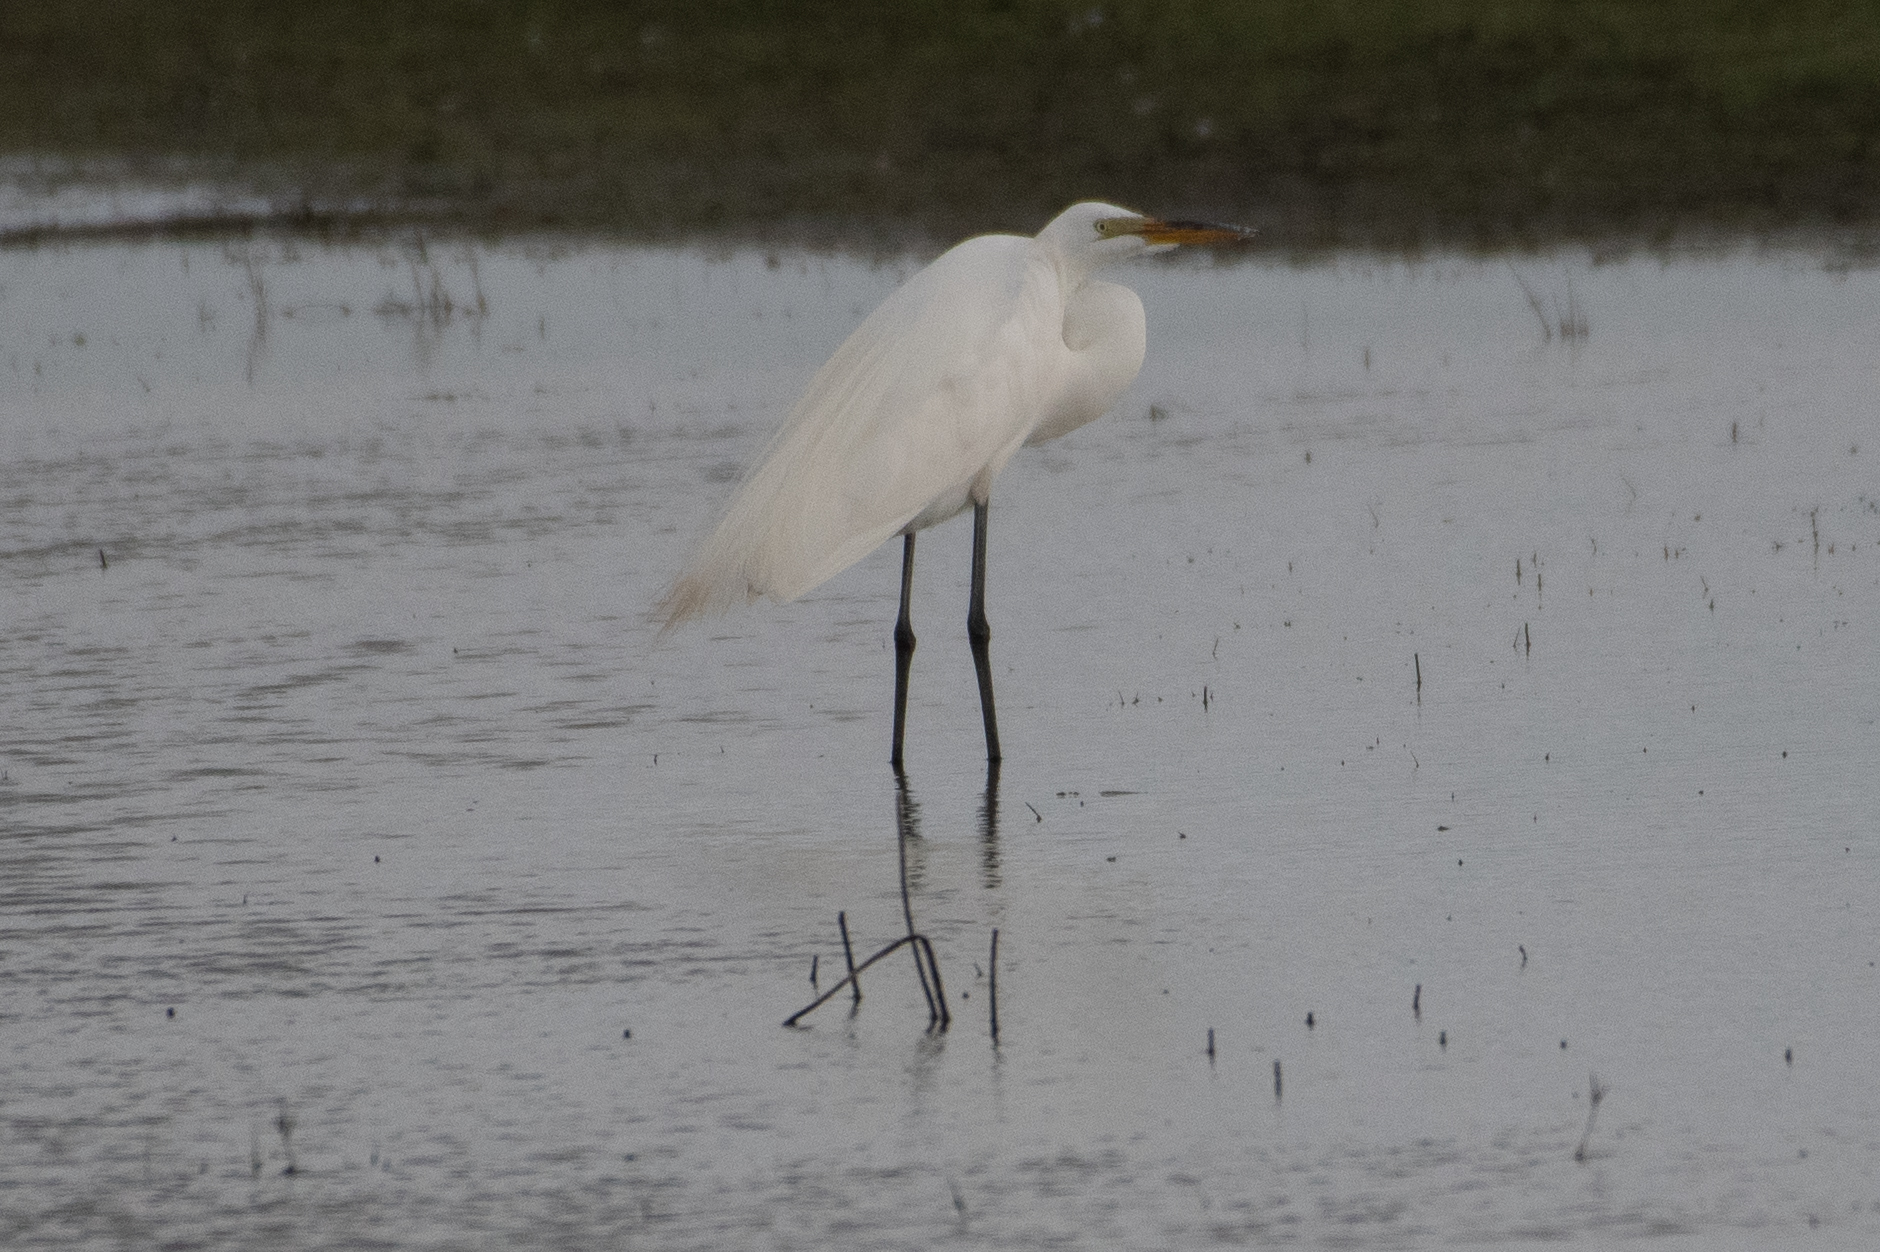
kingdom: Animalia
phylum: Chordata
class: Aves
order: Pelecaniformes
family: Ardeidae
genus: Ardea
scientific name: Ardea alba
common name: Great egret
